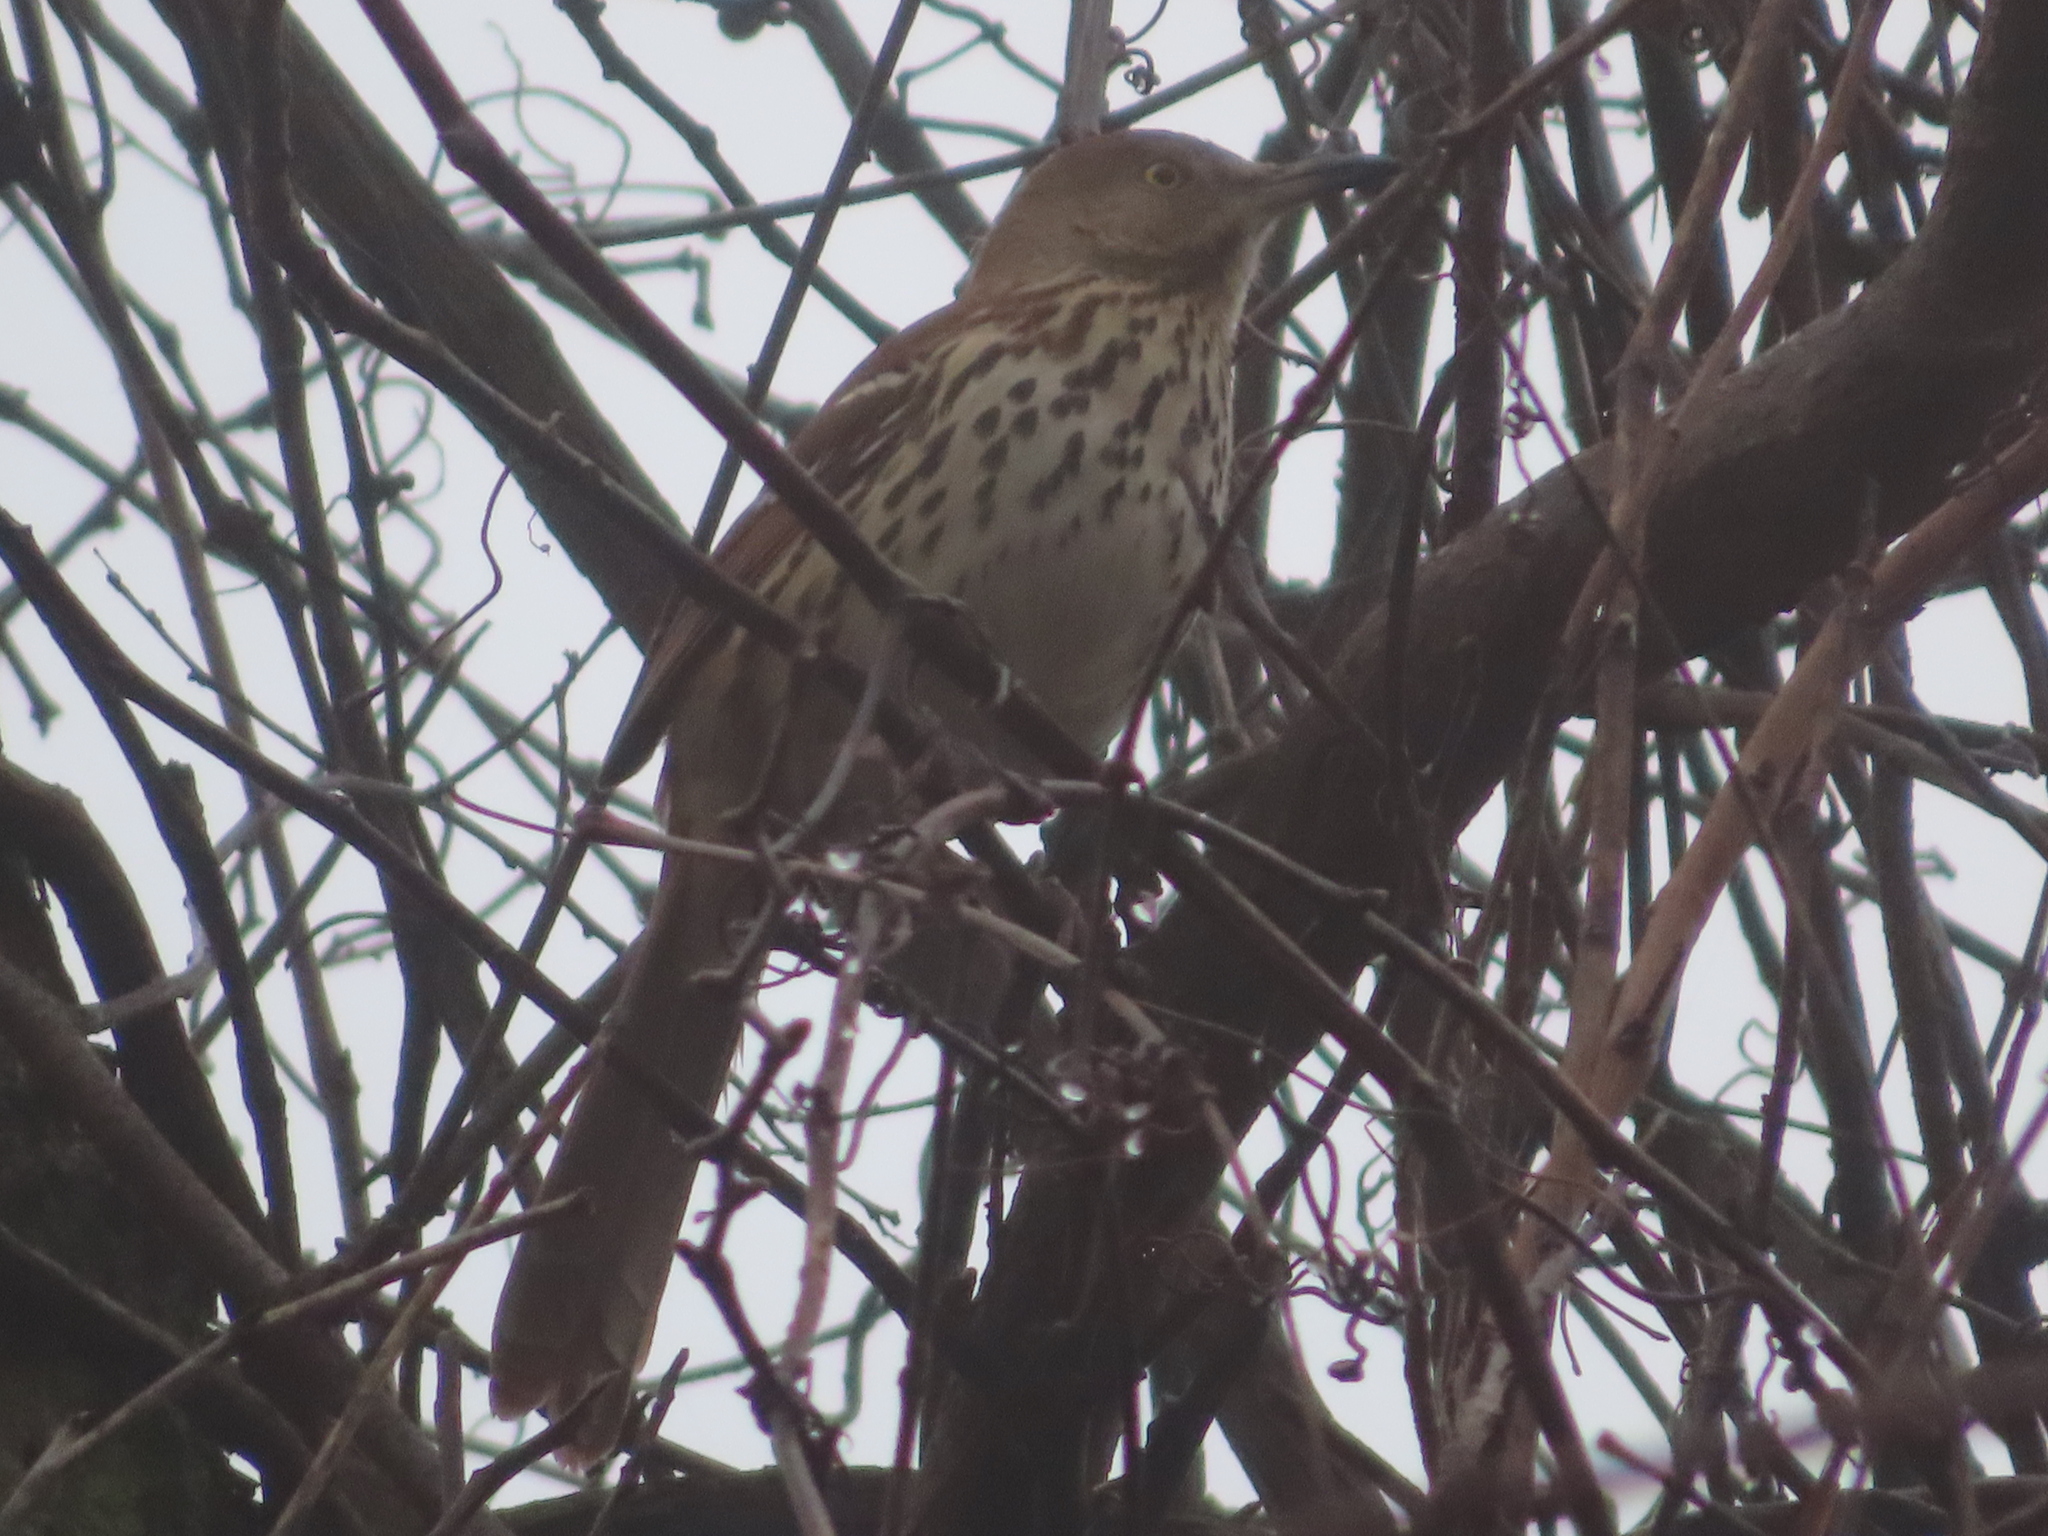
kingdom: Animalia
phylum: Chordata
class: Aves
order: Passeriformes
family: Mimidae
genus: Toxostoma
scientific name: Toxostoma rufum
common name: Brown thrasher
